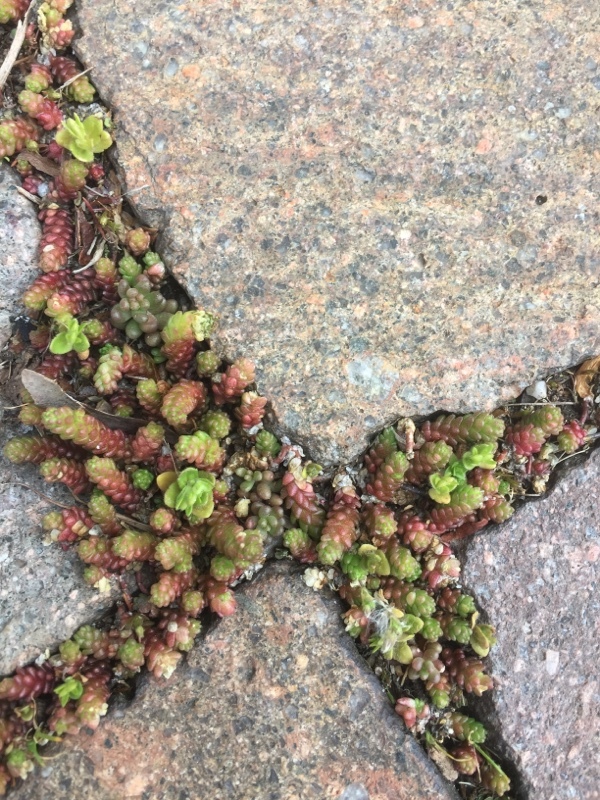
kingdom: Plantae
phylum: Tracheophyta
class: Magnoliopsida
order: Saxifragales
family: Crassulaceae
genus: Sedum
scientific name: Sedum acre
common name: Biting stonecrop
